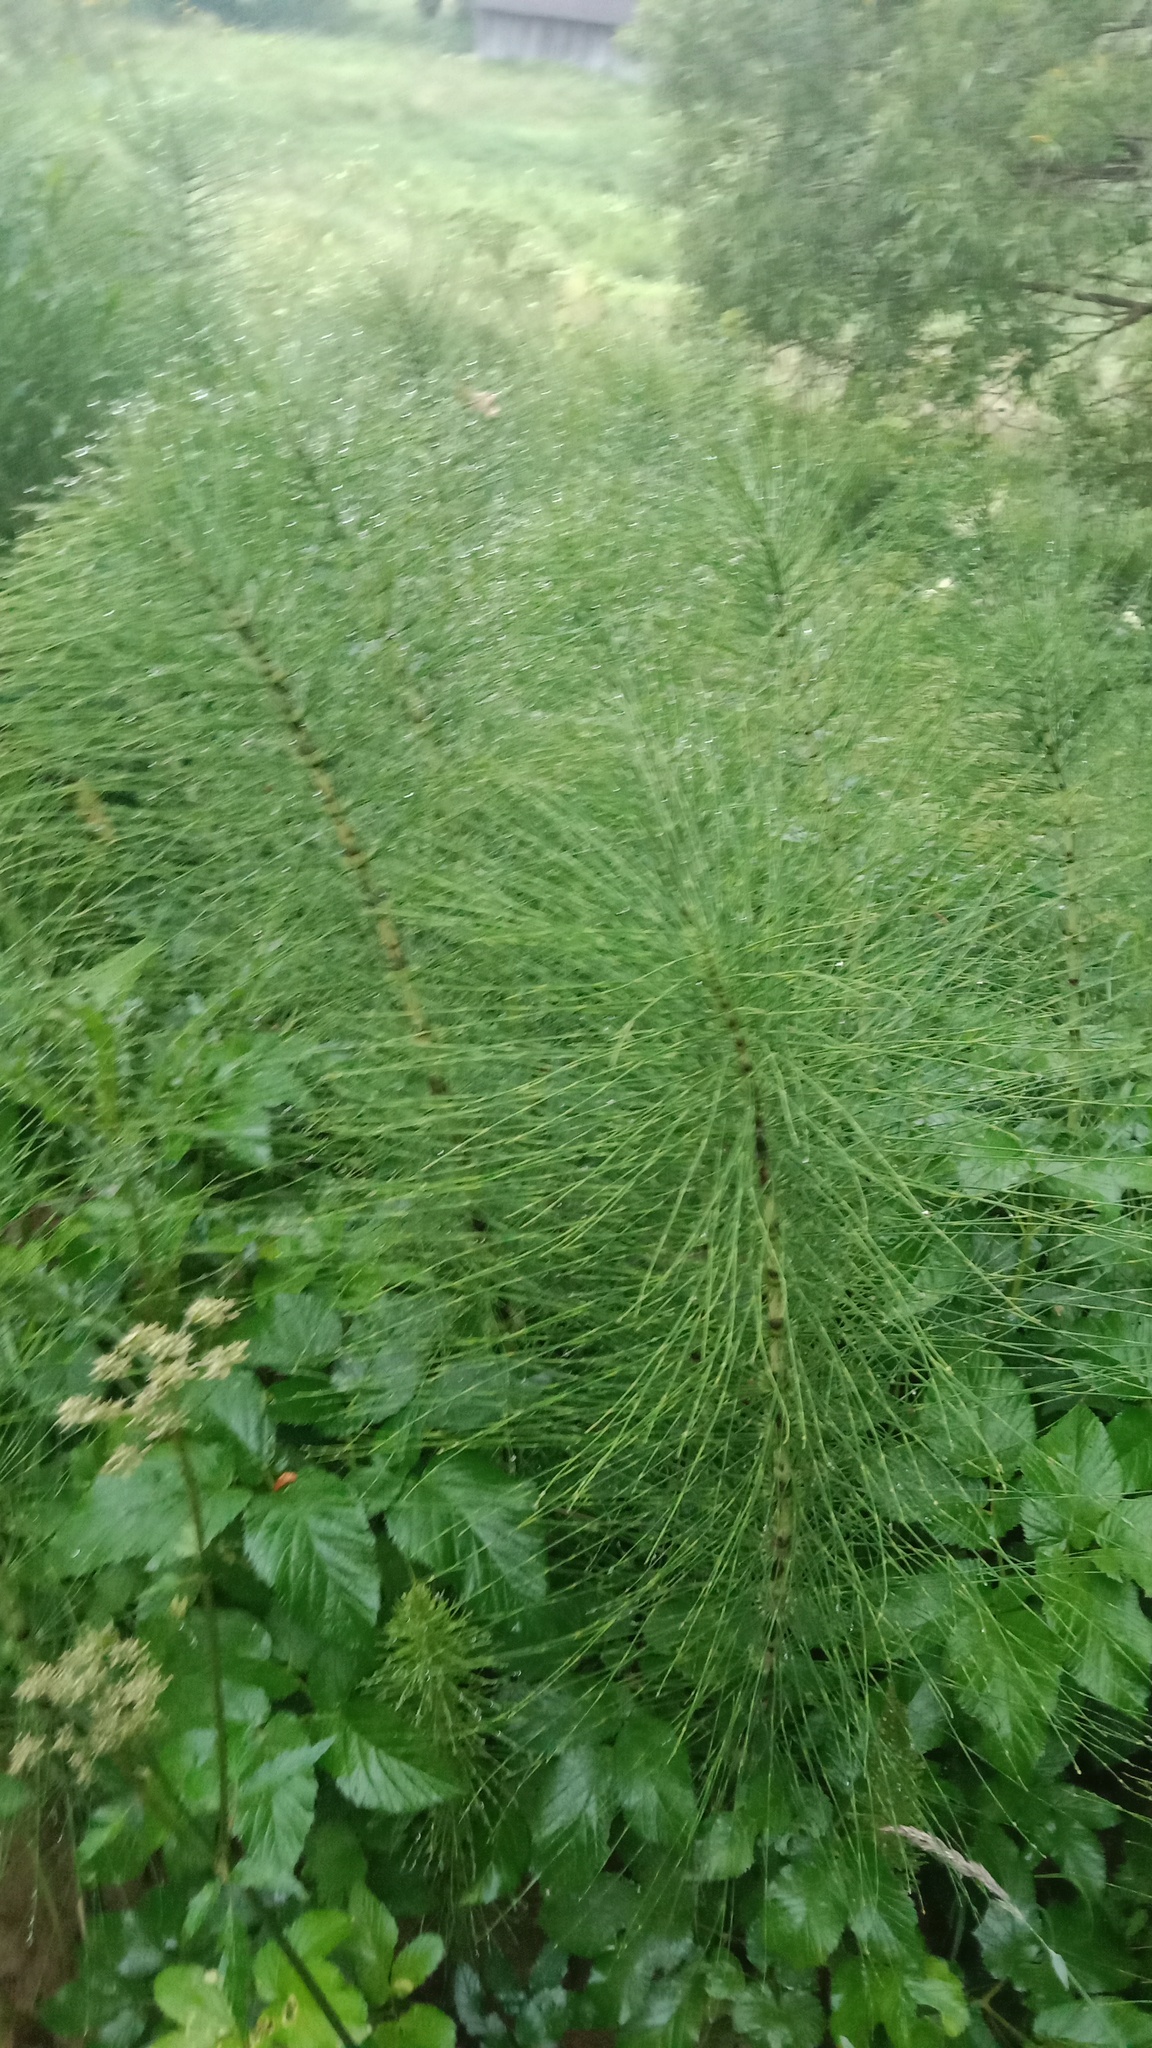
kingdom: Plantae
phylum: Tracheophyta
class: Polypodiopsida
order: Equisetales
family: Equisetaceae
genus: Equisetum
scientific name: Equisetum telmateia
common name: Great horsetail
